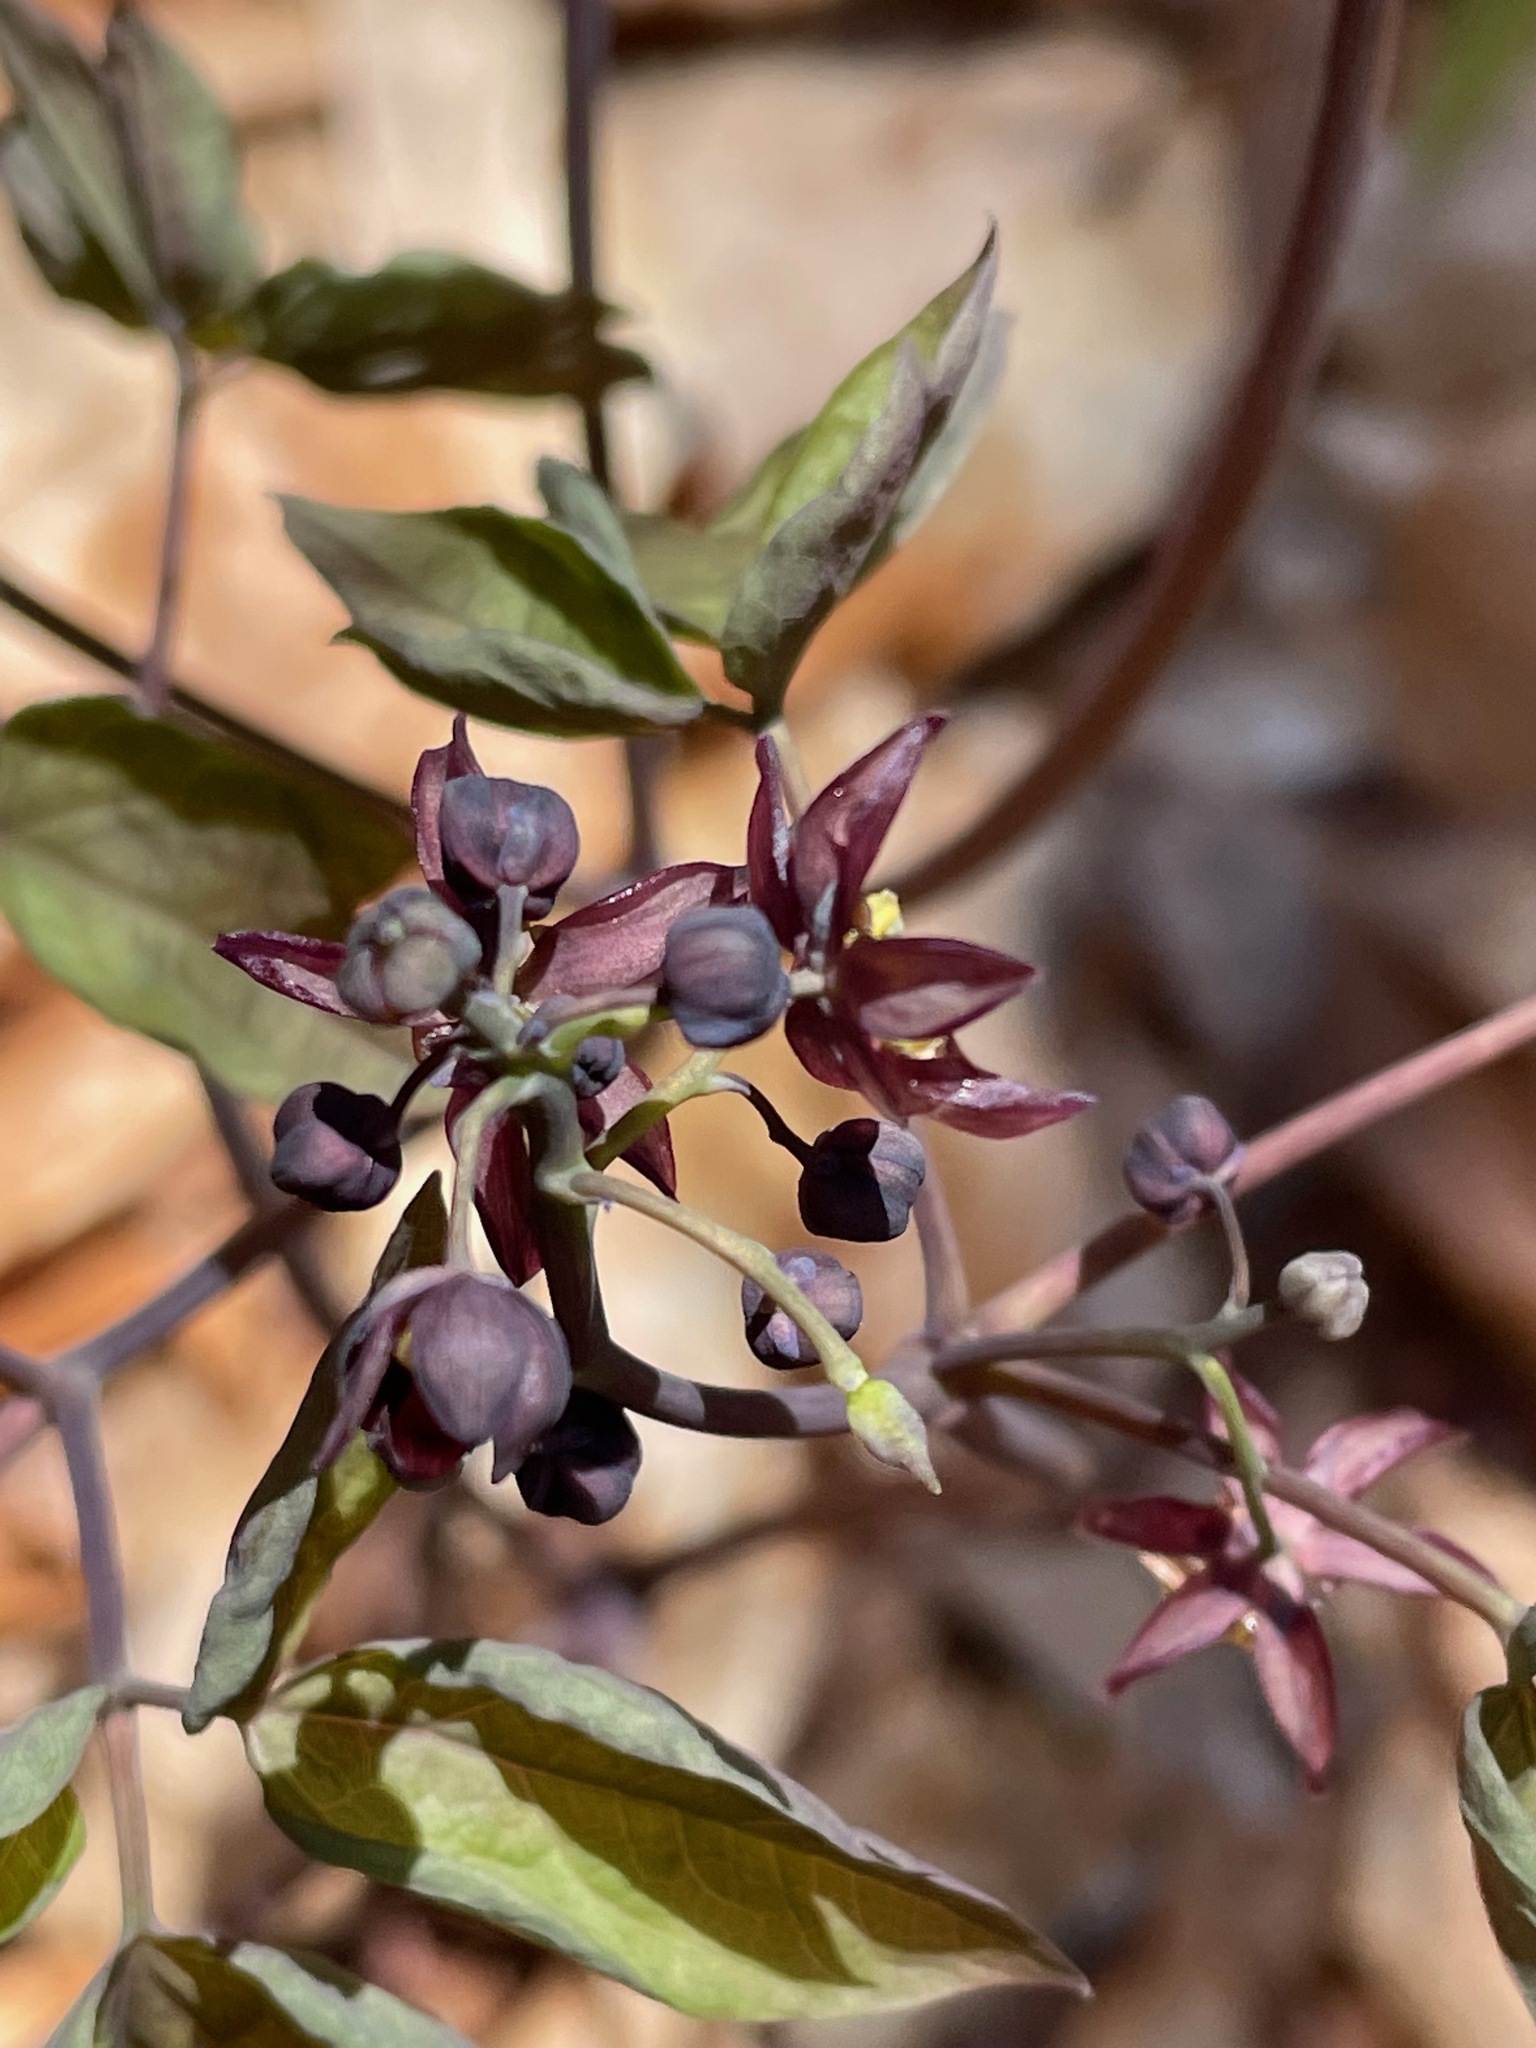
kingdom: Plantae
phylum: Tracheophyta
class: Magnoliopsida
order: Ranunculales
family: Berberidaceae
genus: Caulophyllum
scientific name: Caulophyllum giganteum
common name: Blue cohosh
